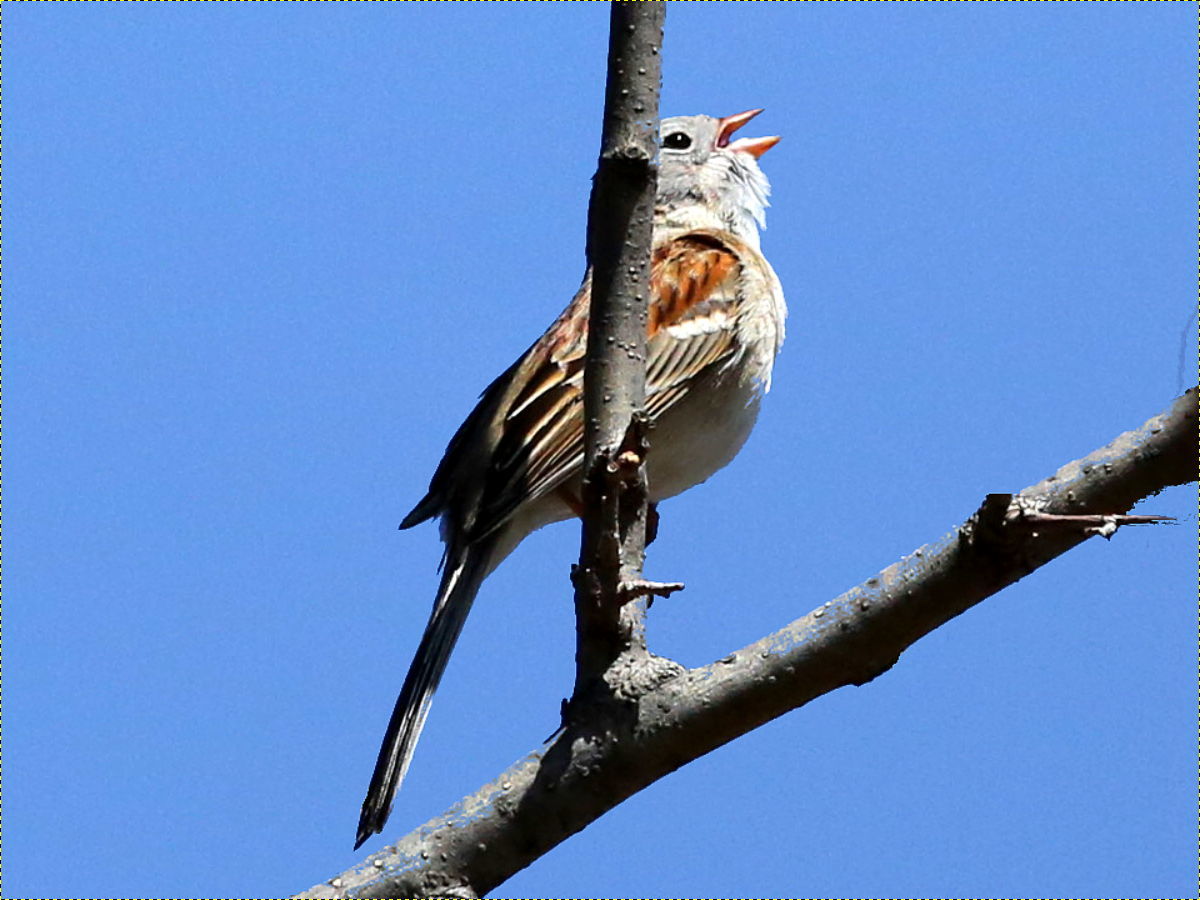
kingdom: Animalia
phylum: Chordata
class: Aves
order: Passeriformes
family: Passerellidae
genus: Spizella
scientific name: Spizella pusilla
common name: Field sparrow
